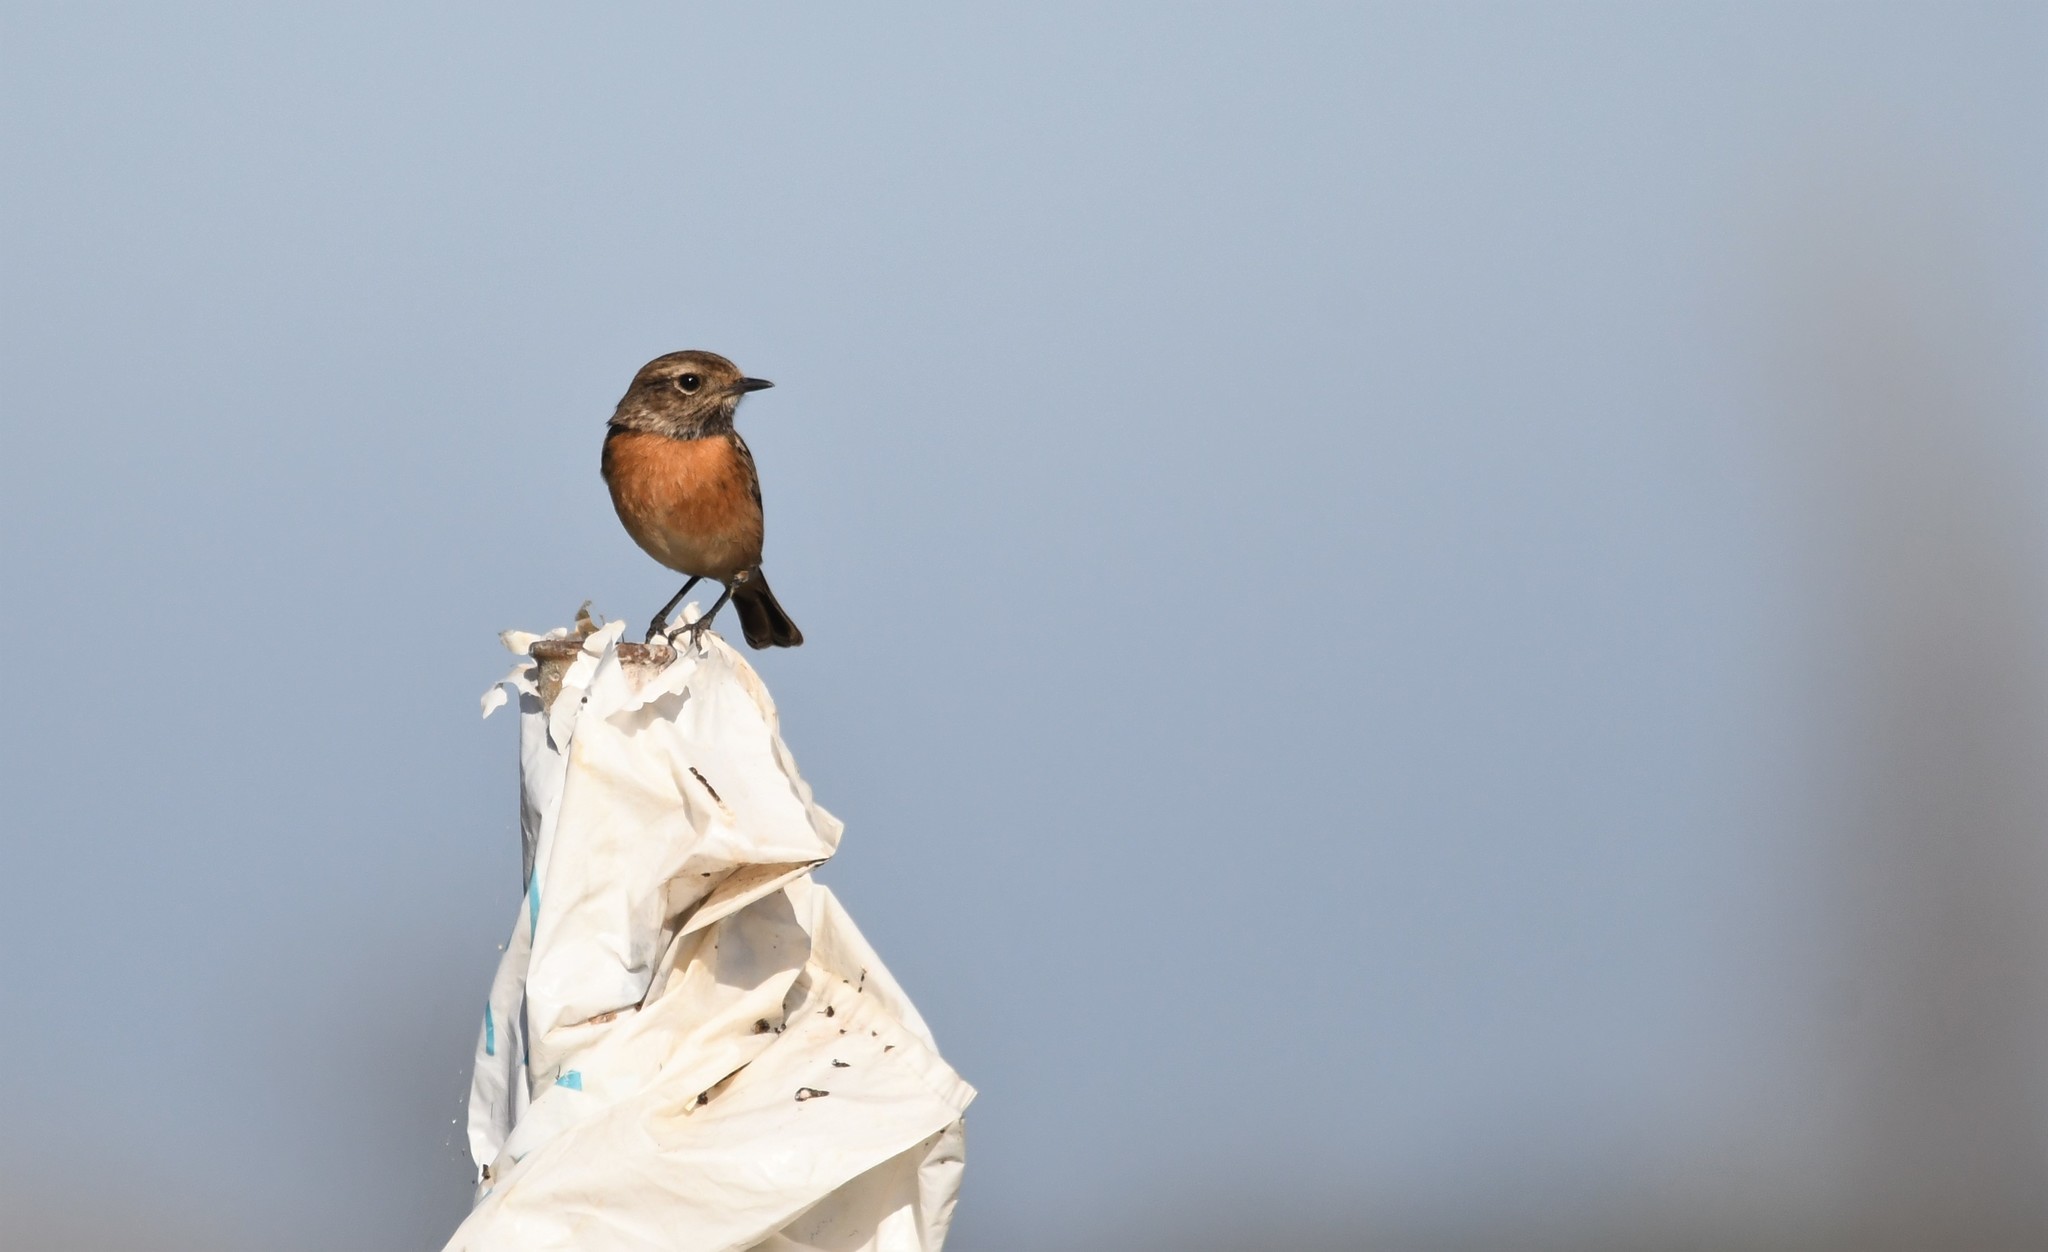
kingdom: Animalia
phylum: Chordata
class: Aves
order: Passeriformes
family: Muscicapidae
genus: Saxicola
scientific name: Saxicola rubicola
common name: European stonechat
